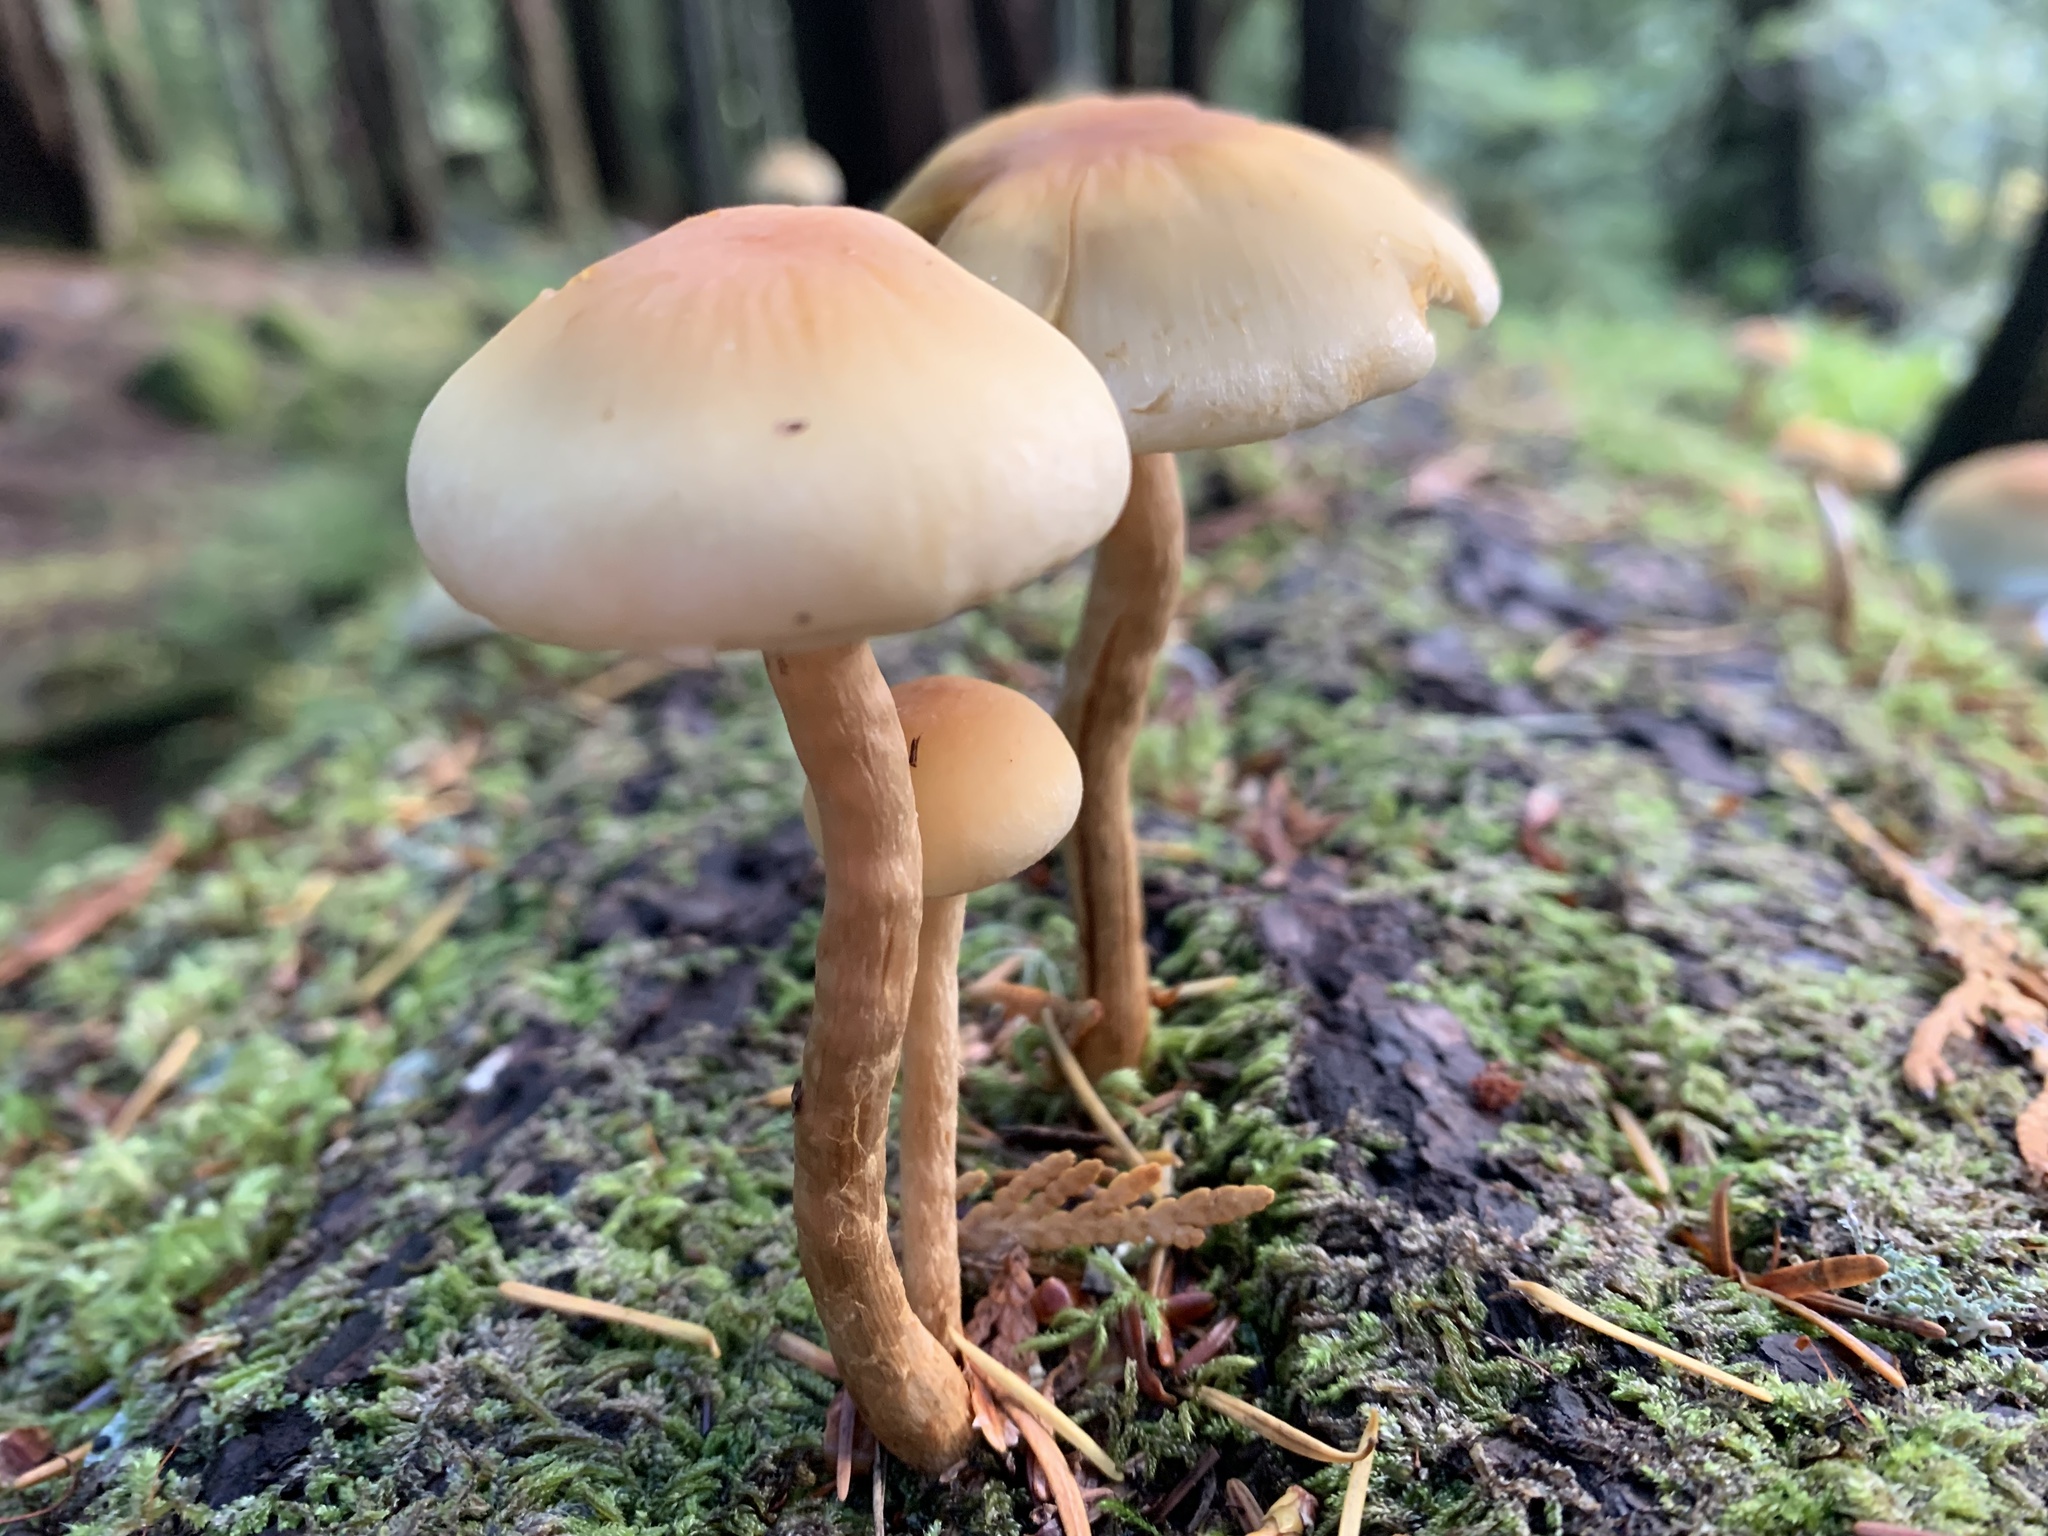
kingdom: Fungi
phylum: Basidiomycota
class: Agaricomycetes
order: Agaricales
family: Strophariaceae
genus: Hypholoma
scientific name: Hypholoma capnoides
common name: Conifer tuft
